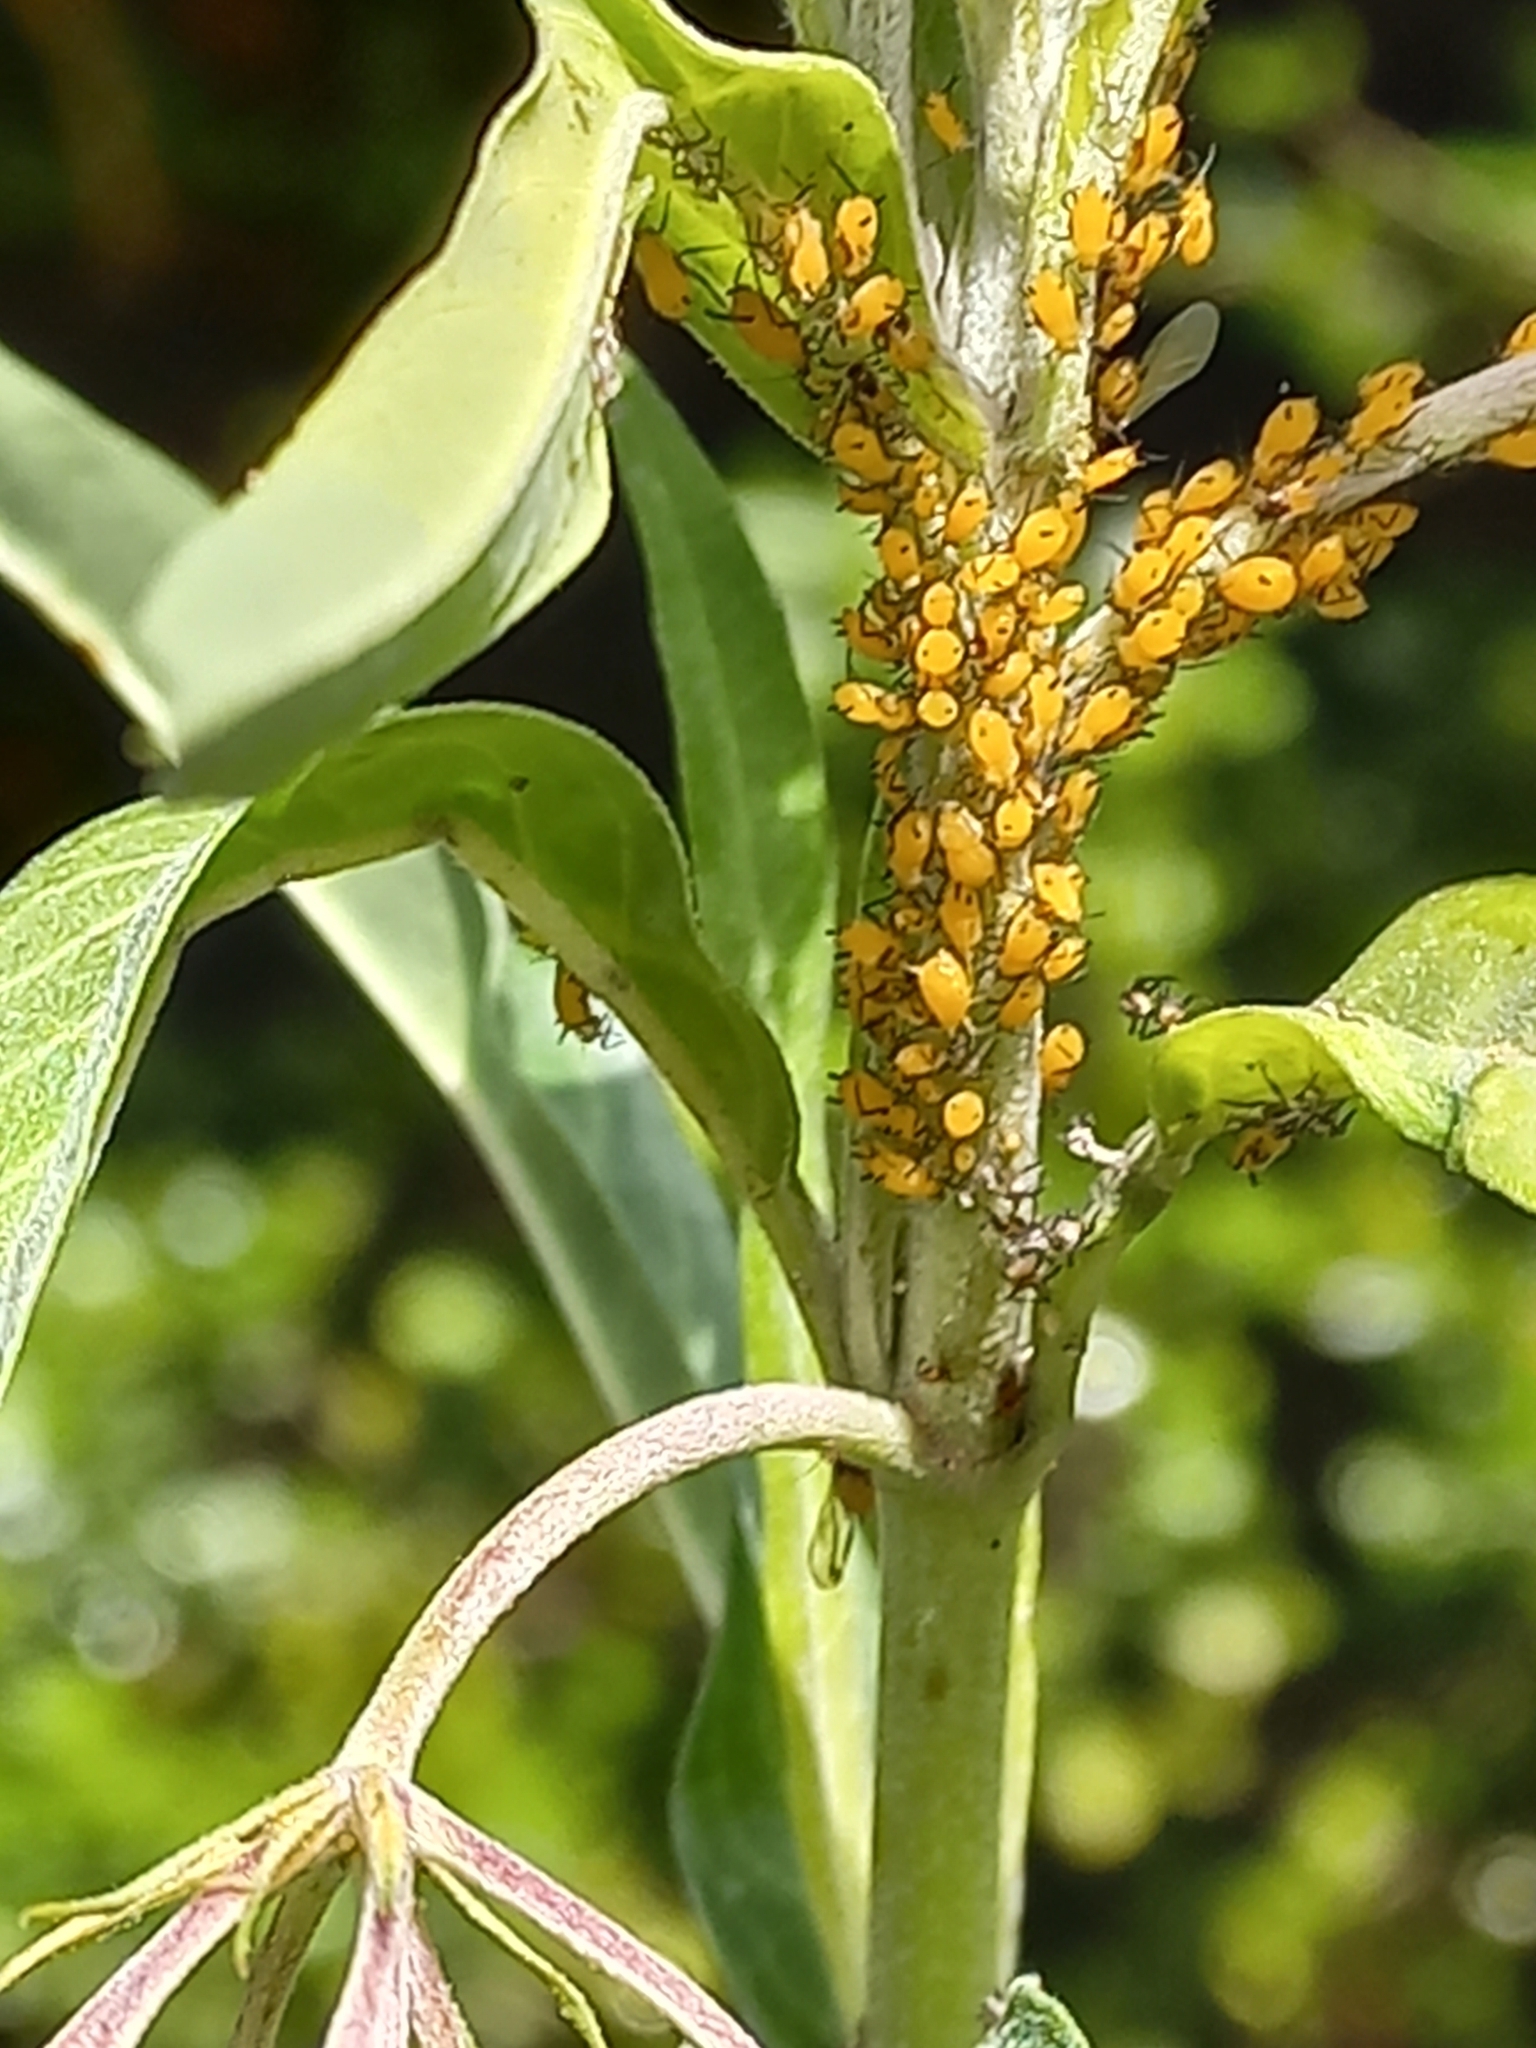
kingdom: Animalia
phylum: Arthropoda
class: Insecta
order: Hemiptera
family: Aphididae
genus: Aphis
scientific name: Aphis nerii
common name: Oleander aphid
